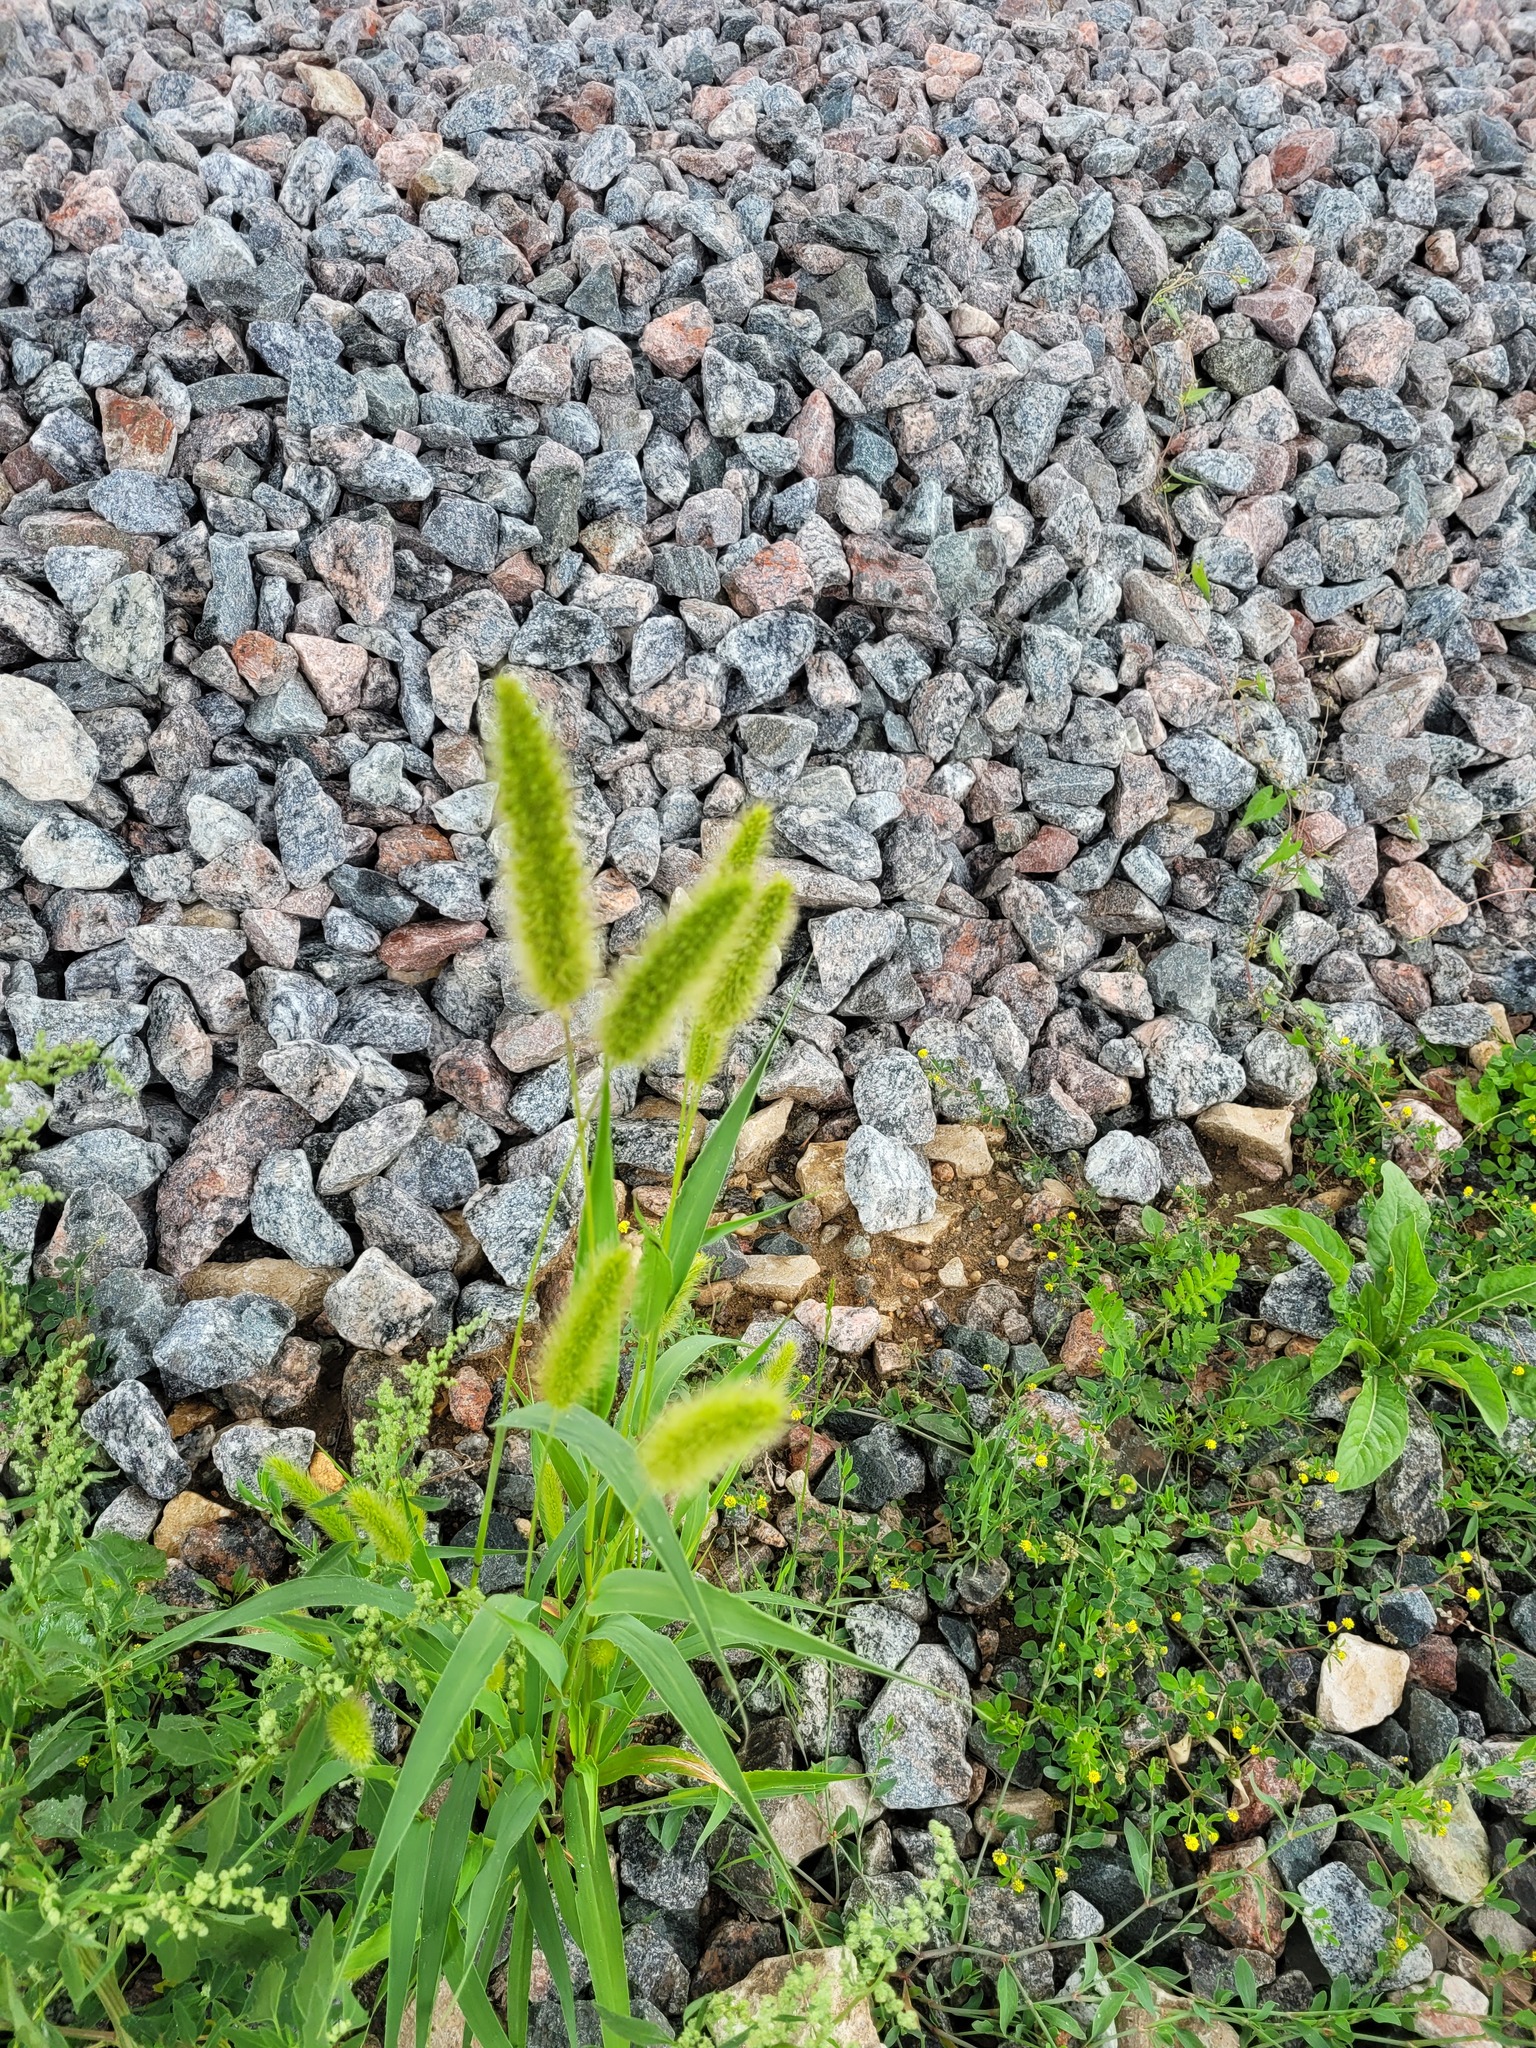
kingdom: Plantae
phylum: Tracheophyta
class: Liliopsida
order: Poales
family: Poaceae
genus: Setaria
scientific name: Setaria viridis
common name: Green bristlegrass
